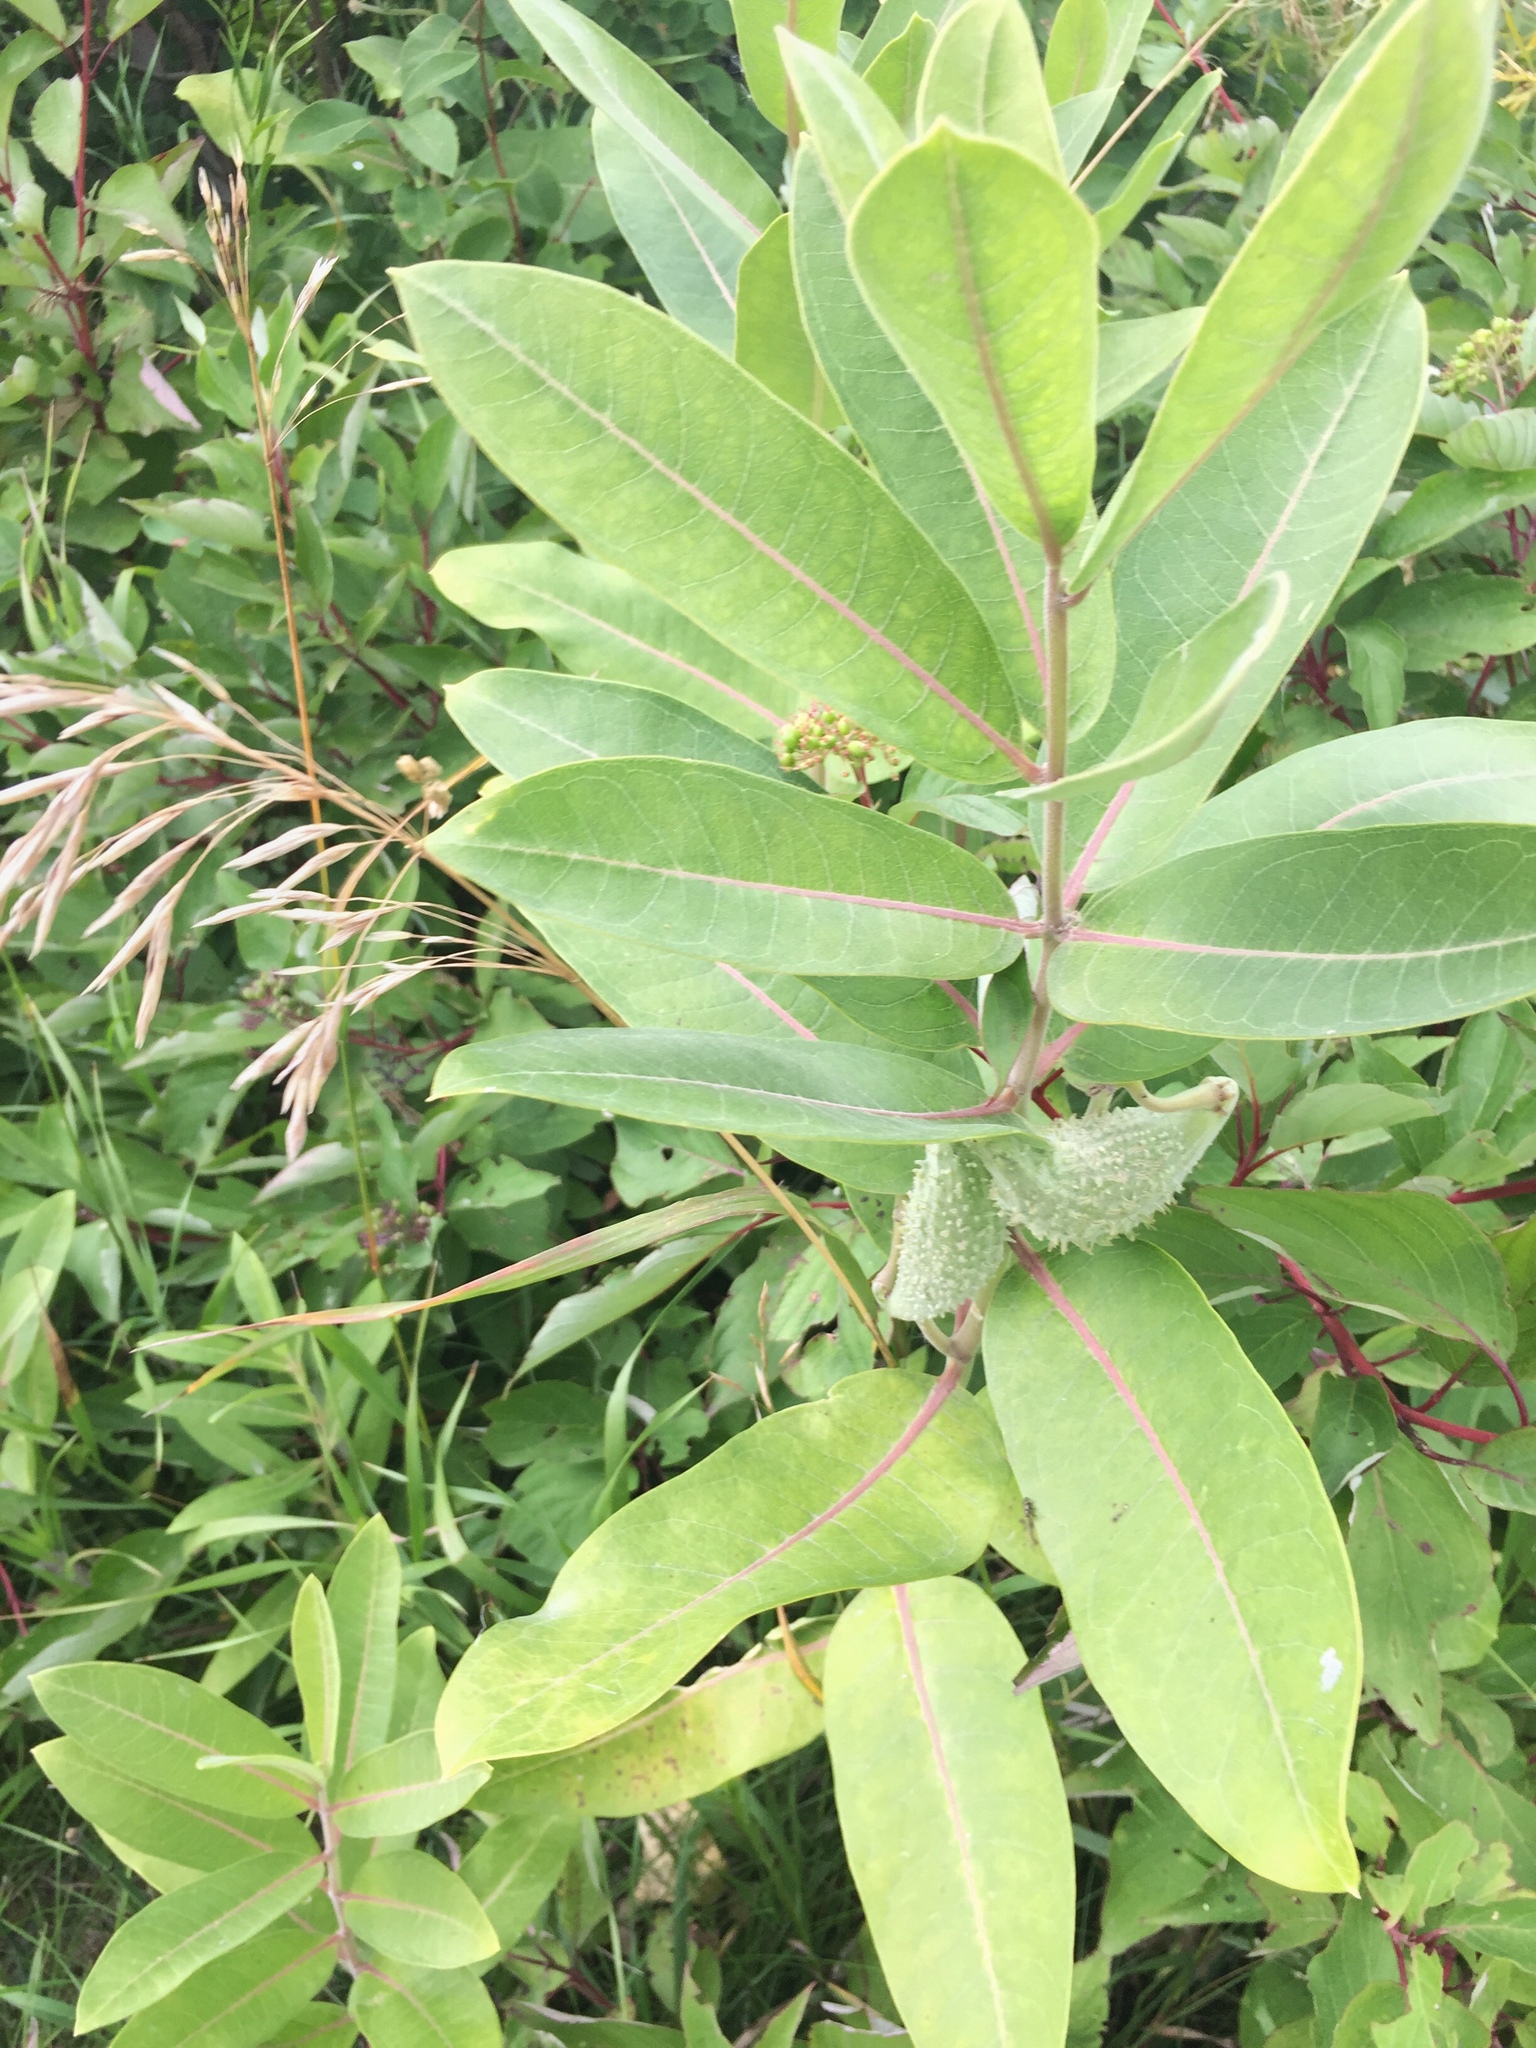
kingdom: Plantae
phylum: Tracheophyta
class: Magnoliopsida
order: Gentianales
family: Apocynaceae
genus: Asclepias
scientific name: Asclepias syriaca
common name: Common milkweed
